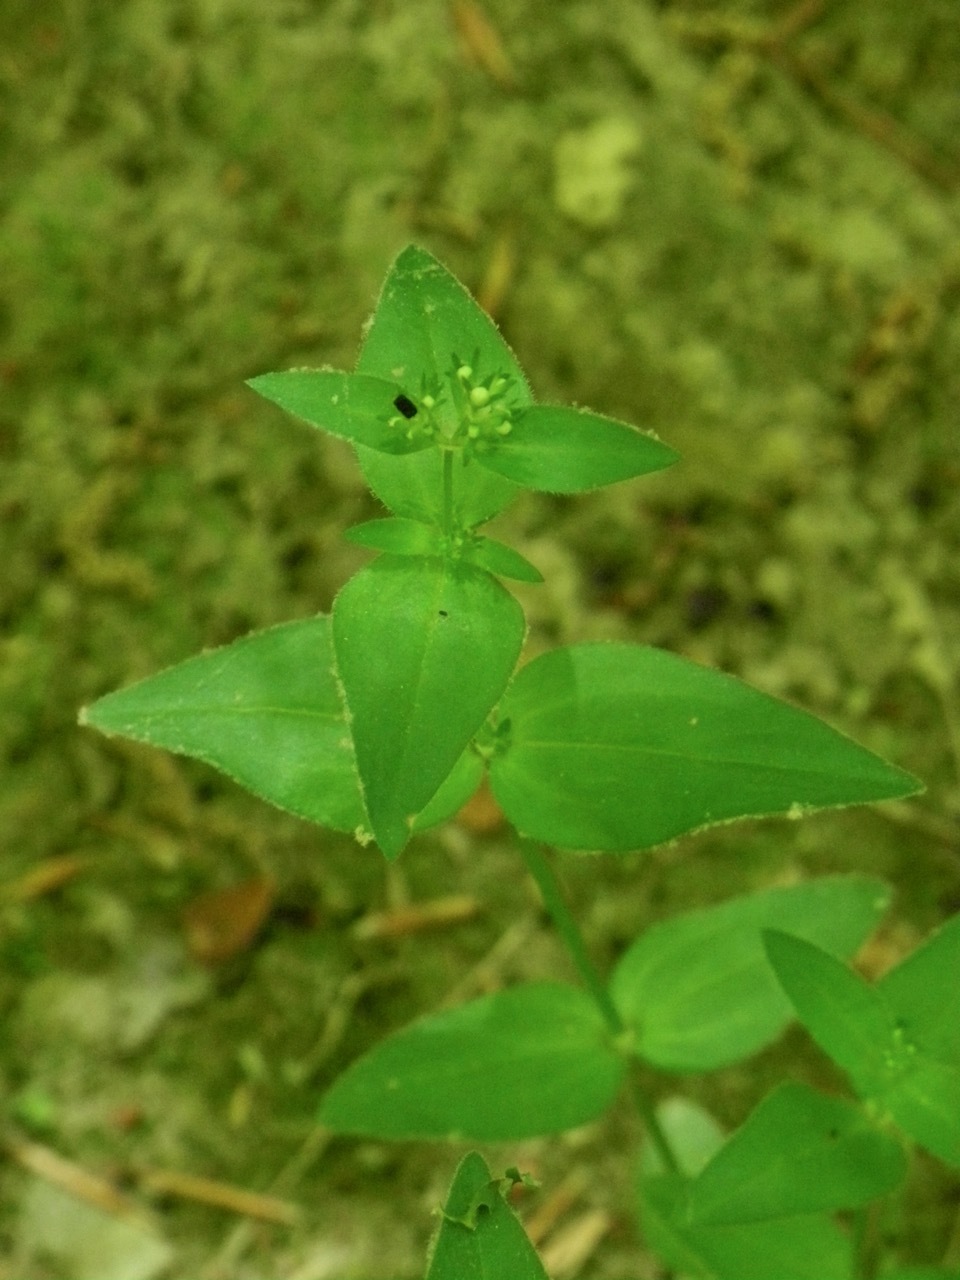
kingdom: Plantae
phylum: Tracheophyta
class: Magnoliopsida
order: Gentianales
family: Rubiaceae
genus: Houstonia
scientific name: Houstonia purpurea
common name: Summer bluet
